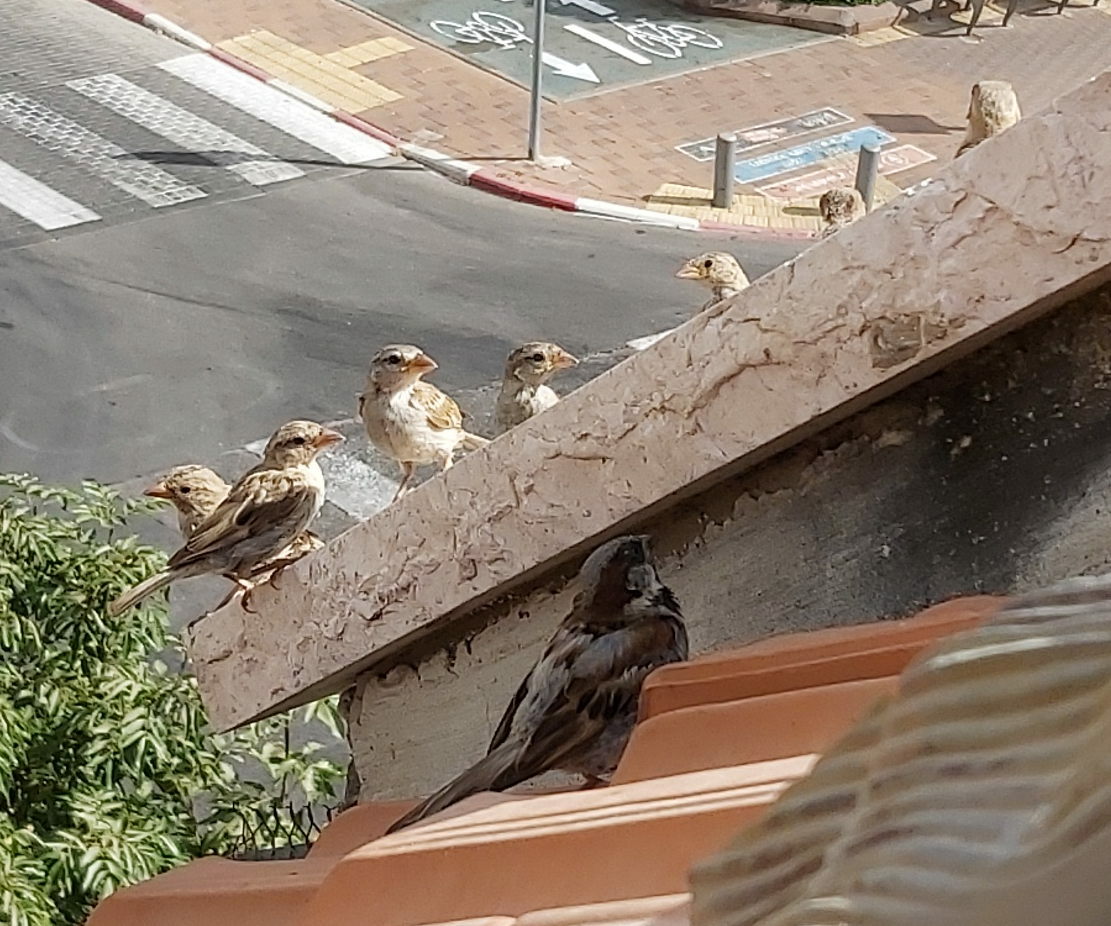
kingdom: Animalia
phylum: Chordata
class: Aves
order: Passeriformes
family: Passeridae
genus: Passer
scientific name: Passer domesticus
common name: House sparrow
